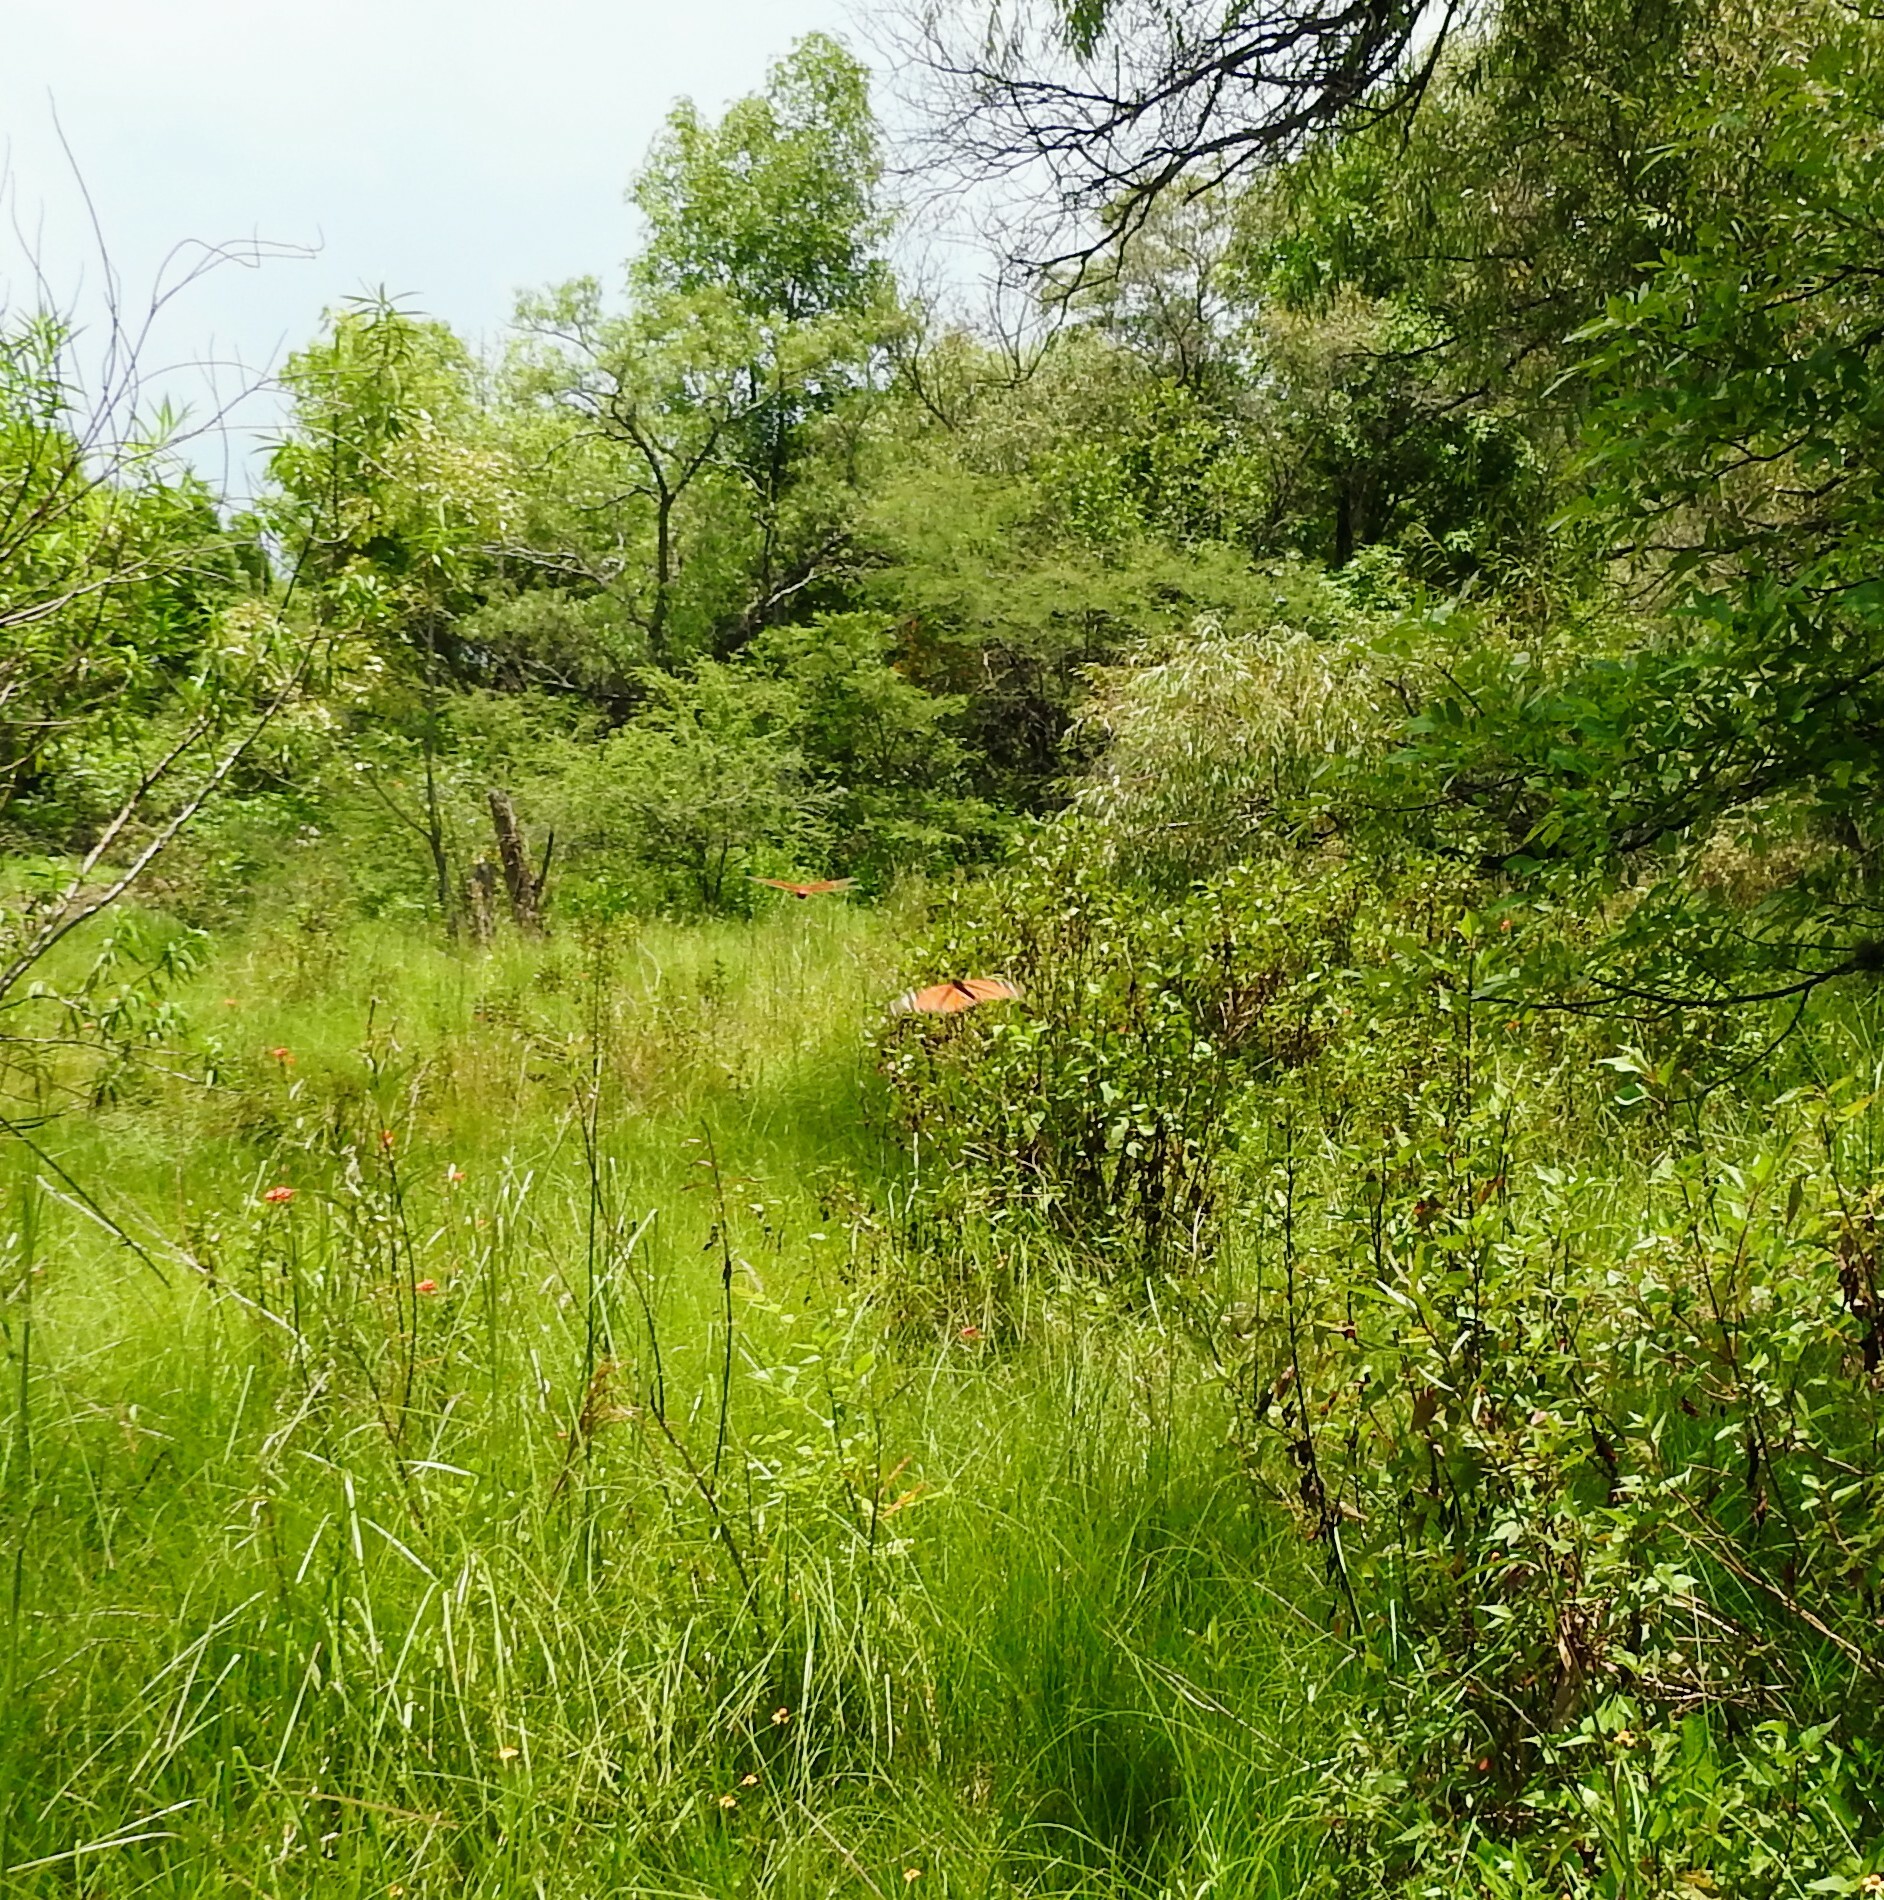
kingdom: Animalia
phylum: Arthropoda
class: Insecta
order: Lepidoptera
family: Nymphalidae
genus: Danaus
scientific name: Danaus plexippus
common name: Monarch
